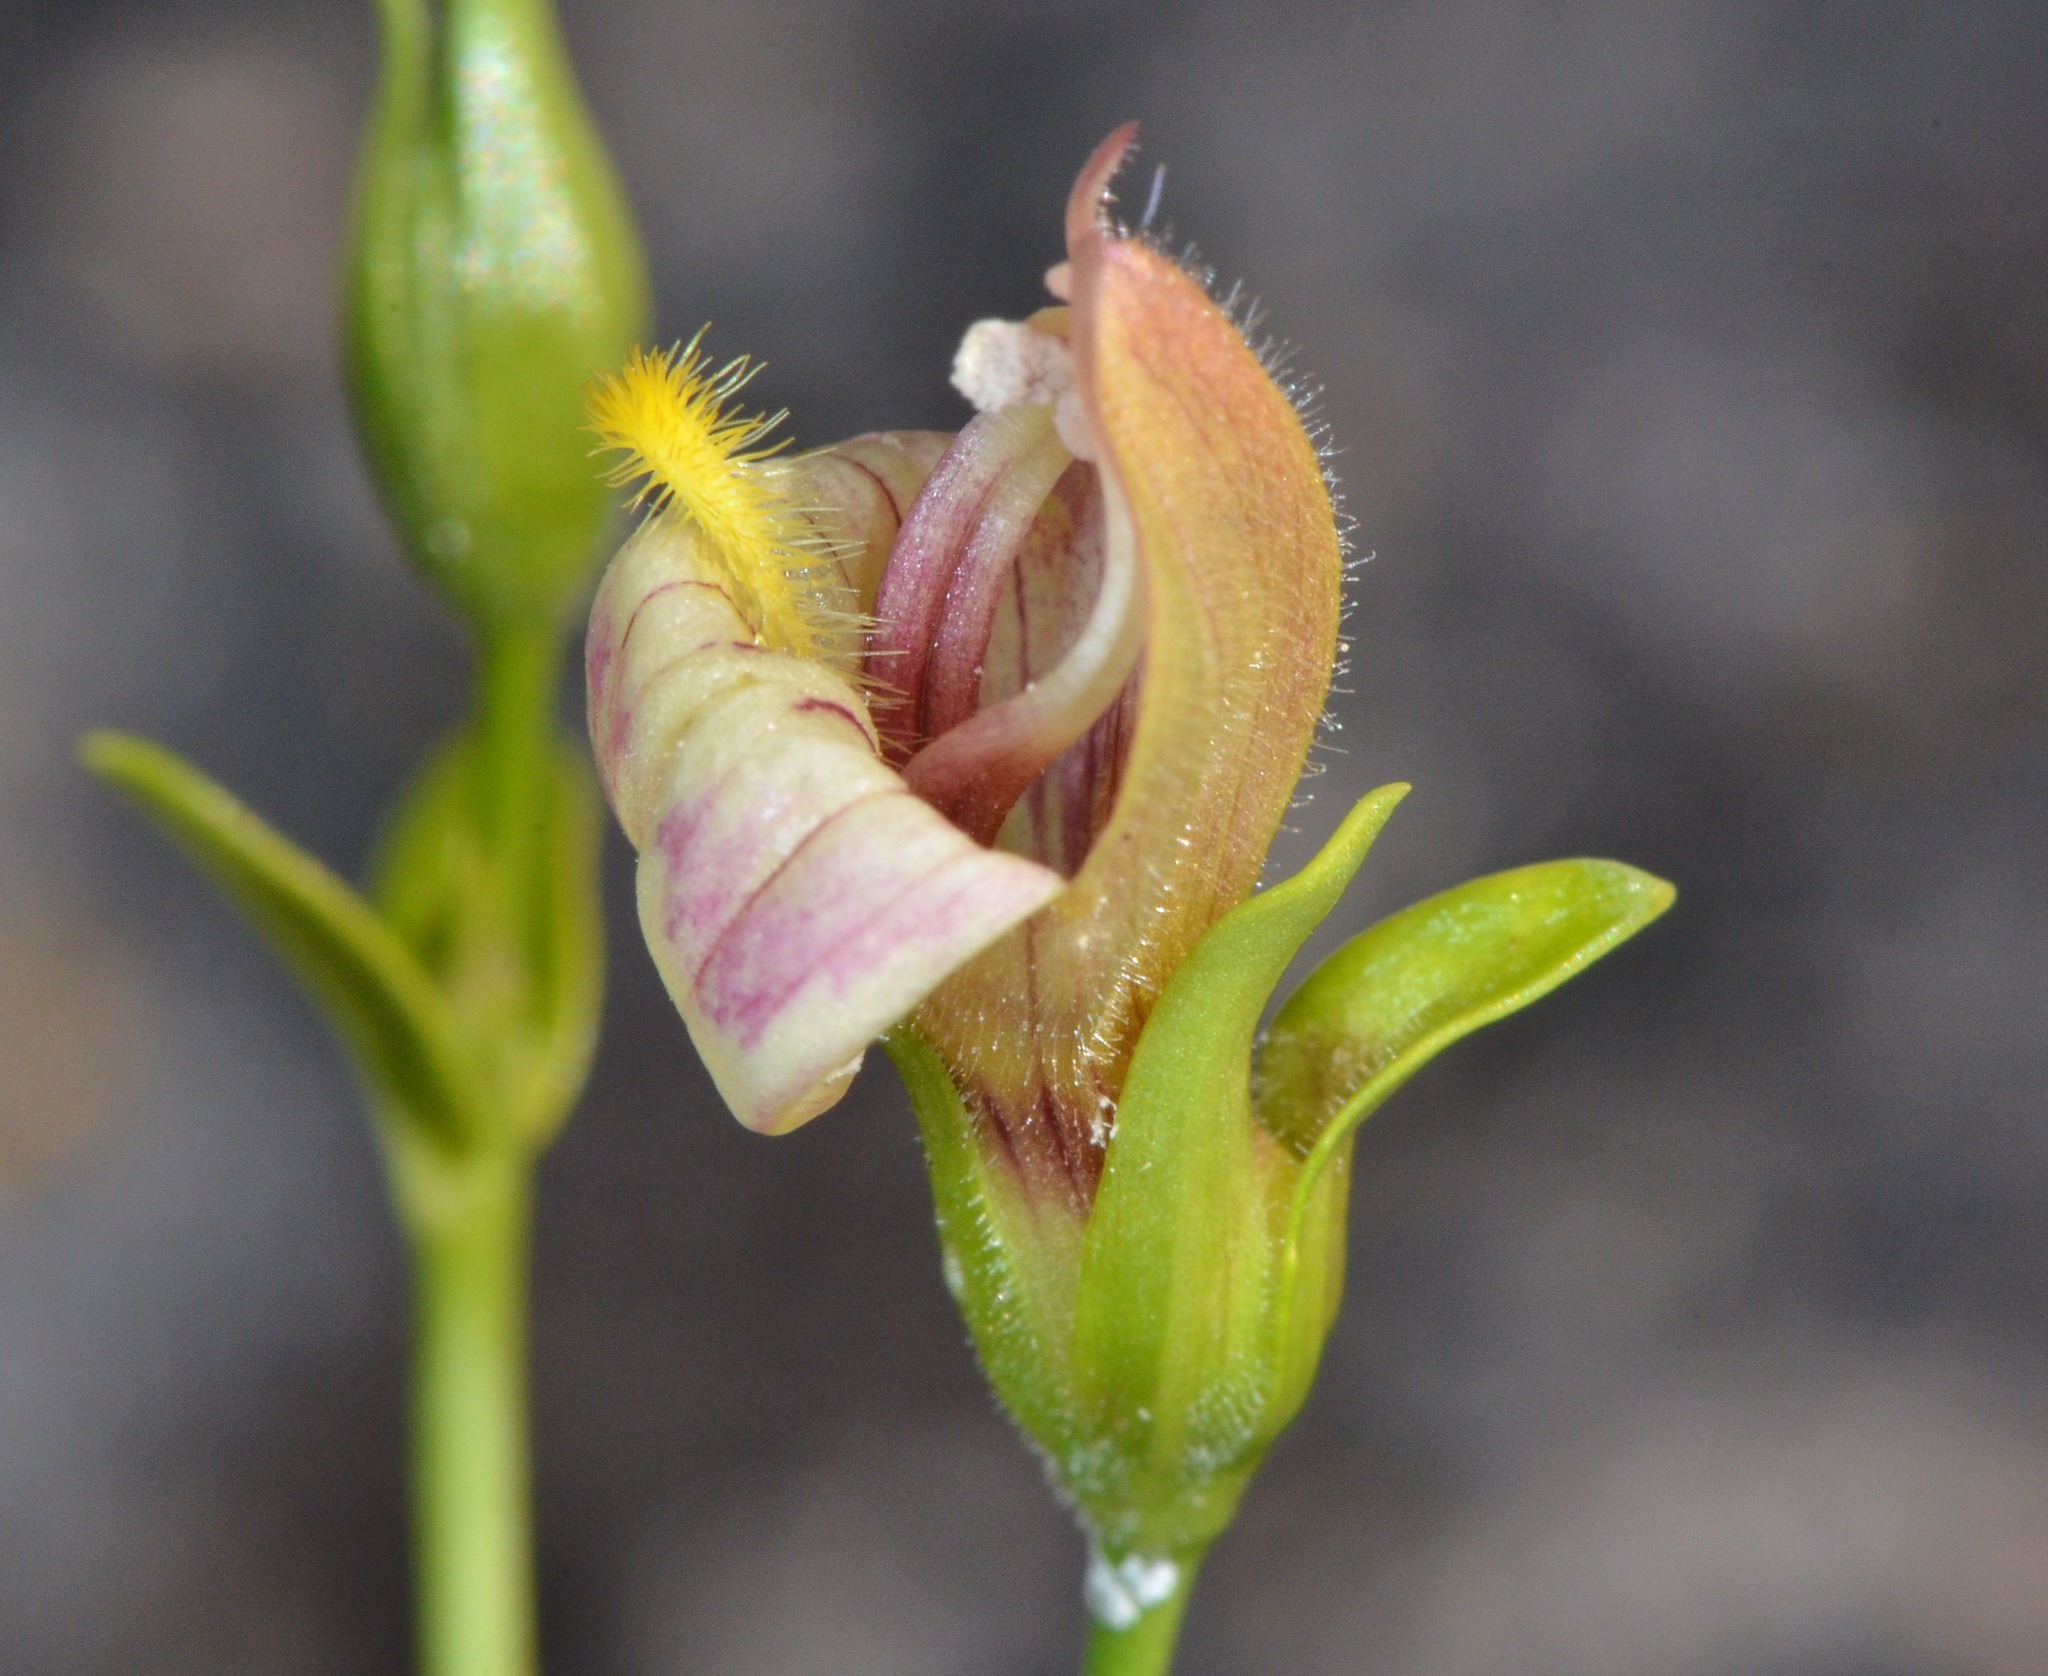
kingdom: Plantae
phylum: Tracheophyta
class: Magnoliopsida
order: Lamiales
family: Plantaginaceae
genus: Keckiella
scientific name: Keckiella lemmonii
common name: Lemmon's keckiella
